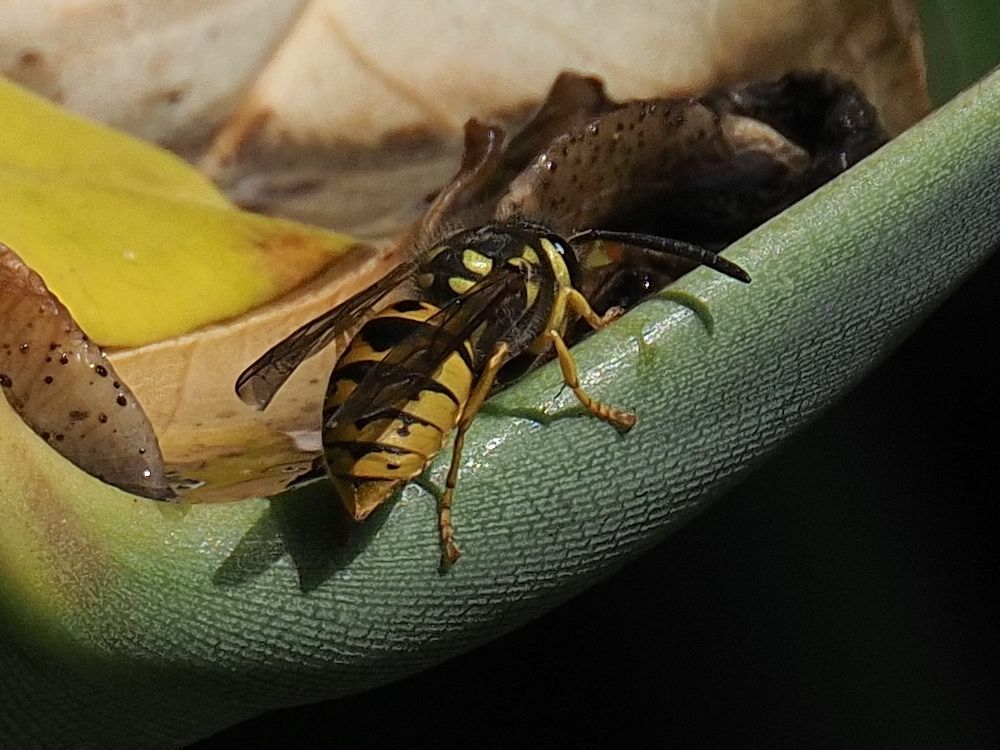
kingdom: Animalia
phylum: Arthropoda
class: Insecta
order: Hymenoptera
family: Vespidae
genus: Vespula
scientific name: Vespula germanica
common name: German wasp
